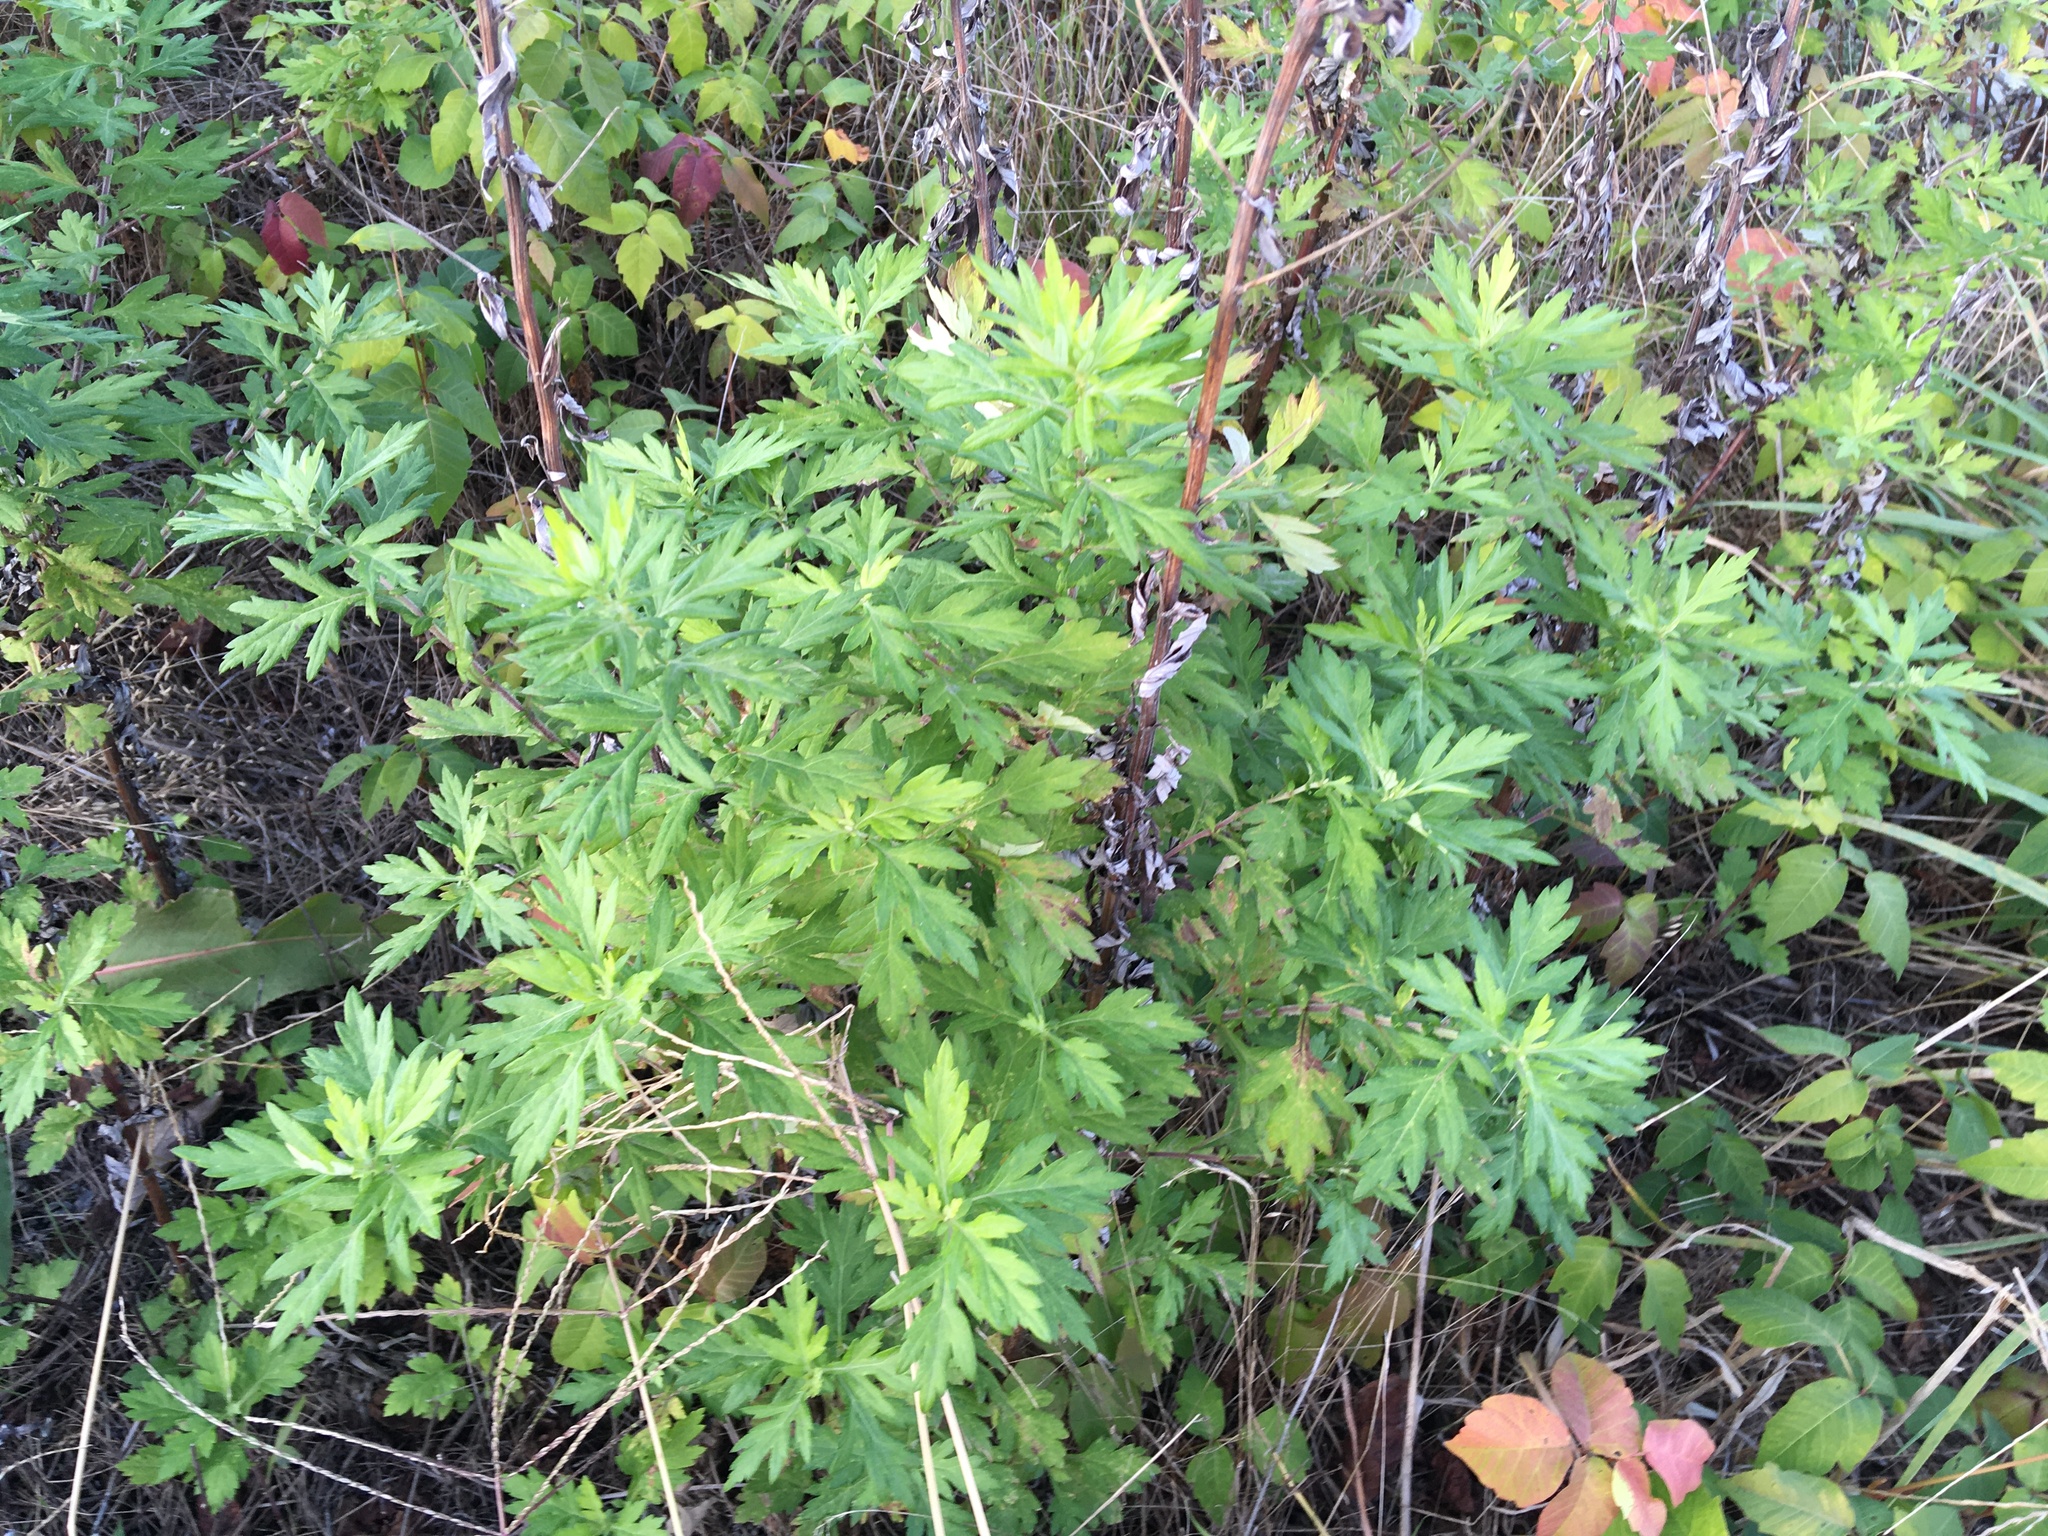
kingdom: Plantae
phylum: Tracheophyta
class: Magnoliopsida
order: Asterales
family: Asteraceae
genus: Artemisia
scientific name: Artemisia vulgaris
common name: Mugwort
